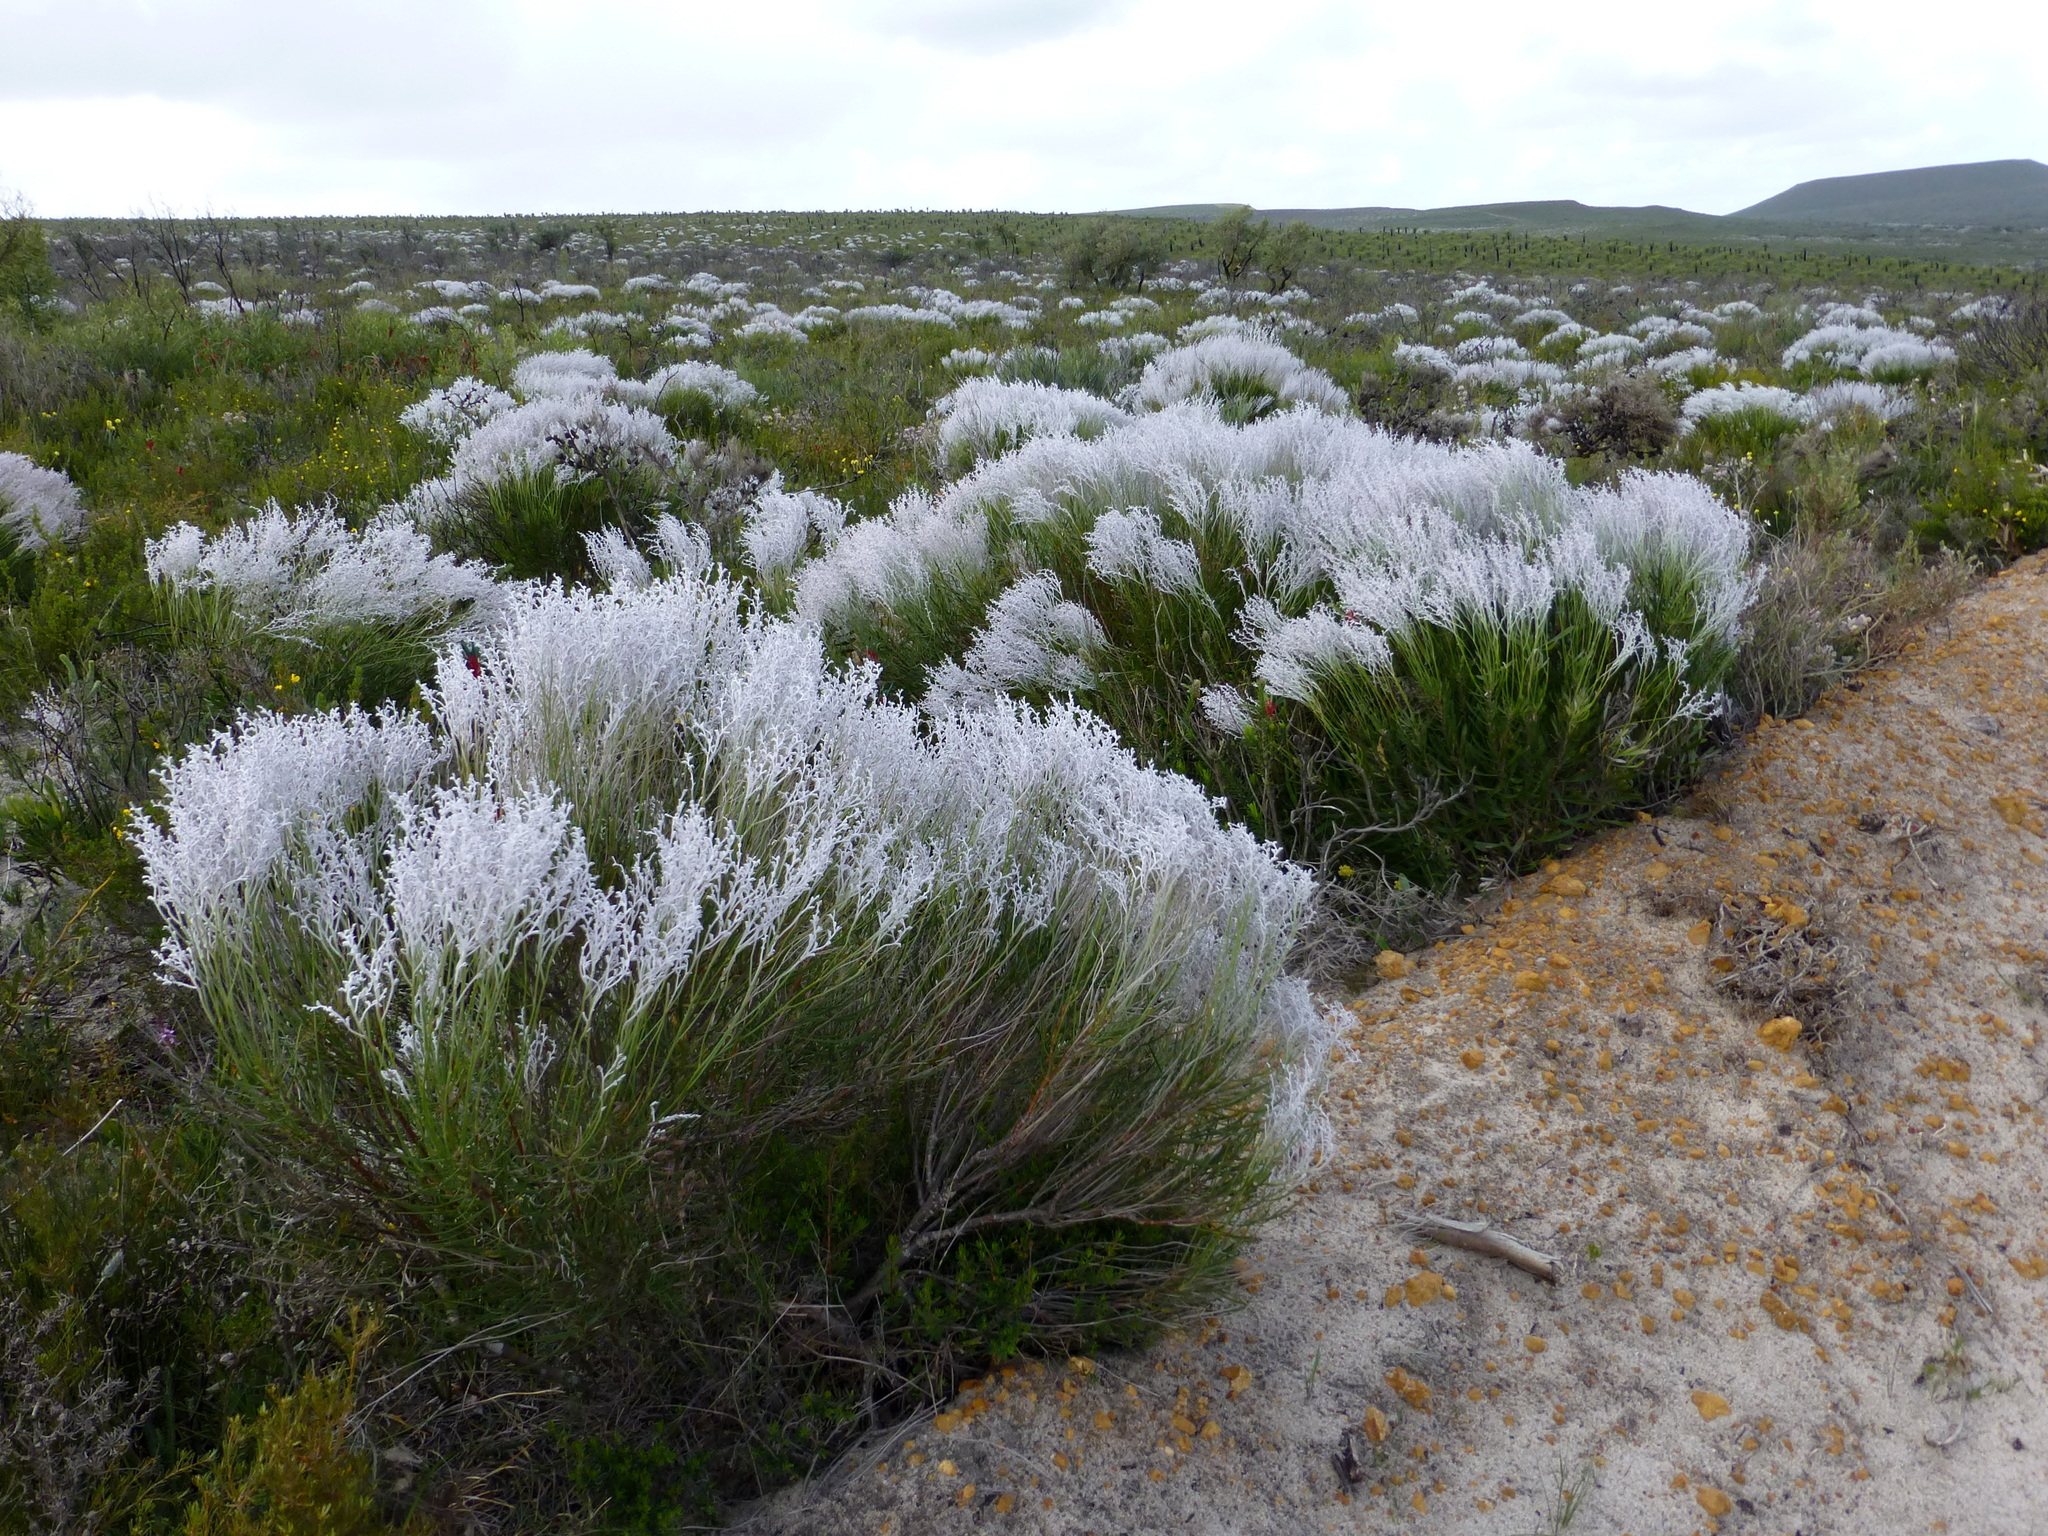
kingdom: Plantae
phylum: Tracheophyta
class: Magnoliopsida
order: Proteales
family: Proteaceae
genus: Conospermum
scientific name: Conospermum stoechadis
